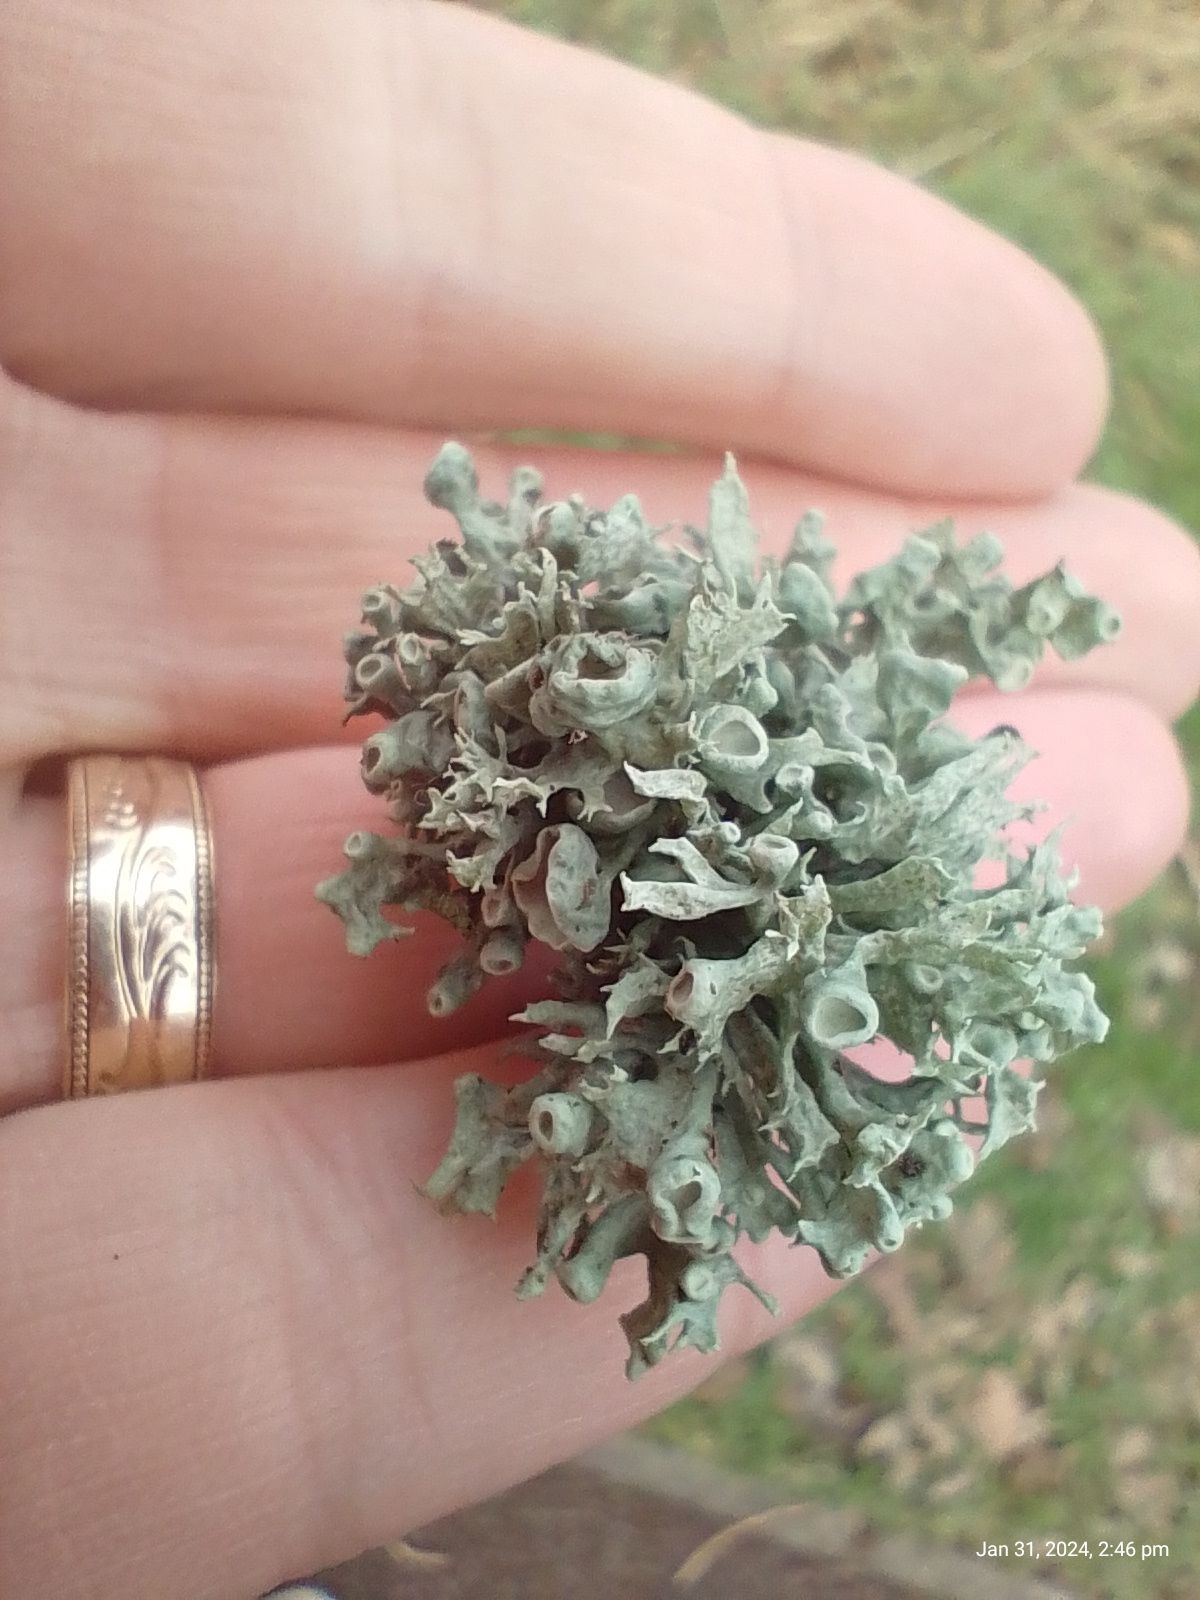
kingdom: Fungi
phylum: Ascomycota
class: Lecanoromycetes
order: Lecanorales
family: Ramalinaceae
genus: Ramalina
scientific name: Ramalina fastigiata
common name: Dotted ribbon lichen
